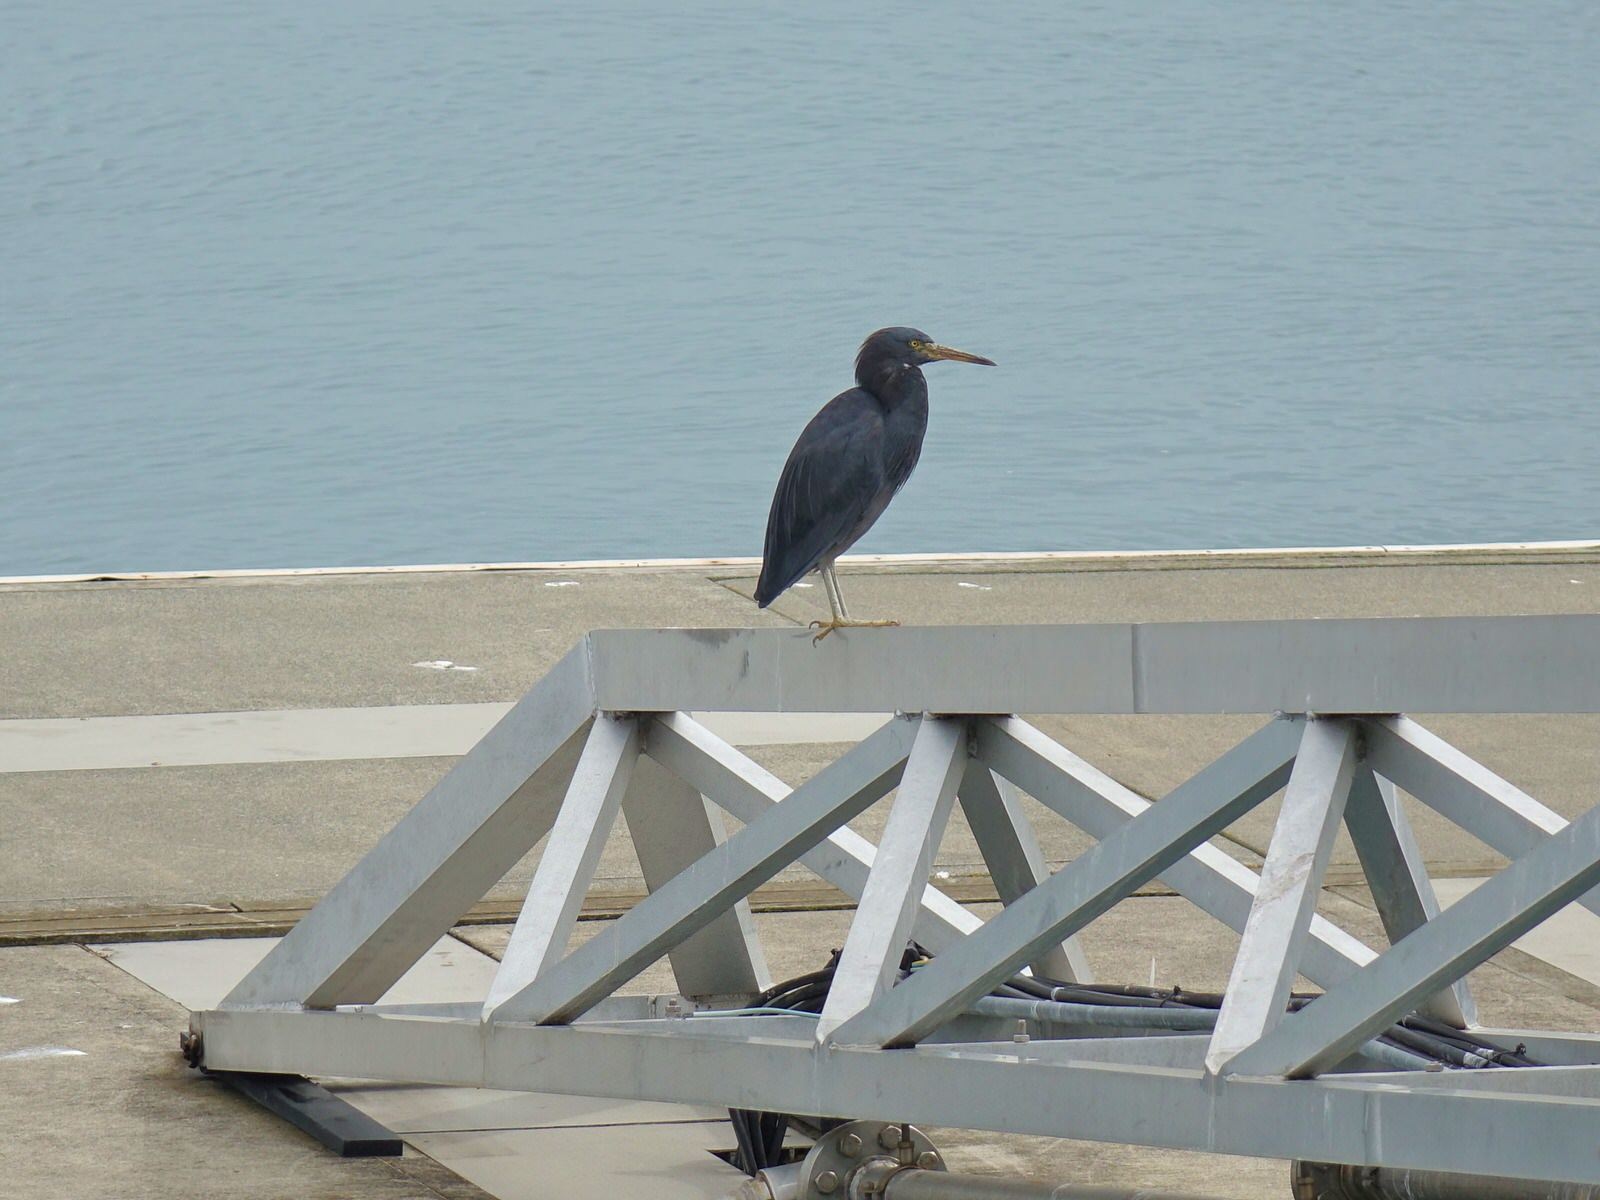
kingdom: Animalia
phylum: Chordata
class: Aves
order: Pelecaniformes
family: Ardeidae
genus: Egretta
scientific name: Egretta sacra
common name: Pacific reef heron
